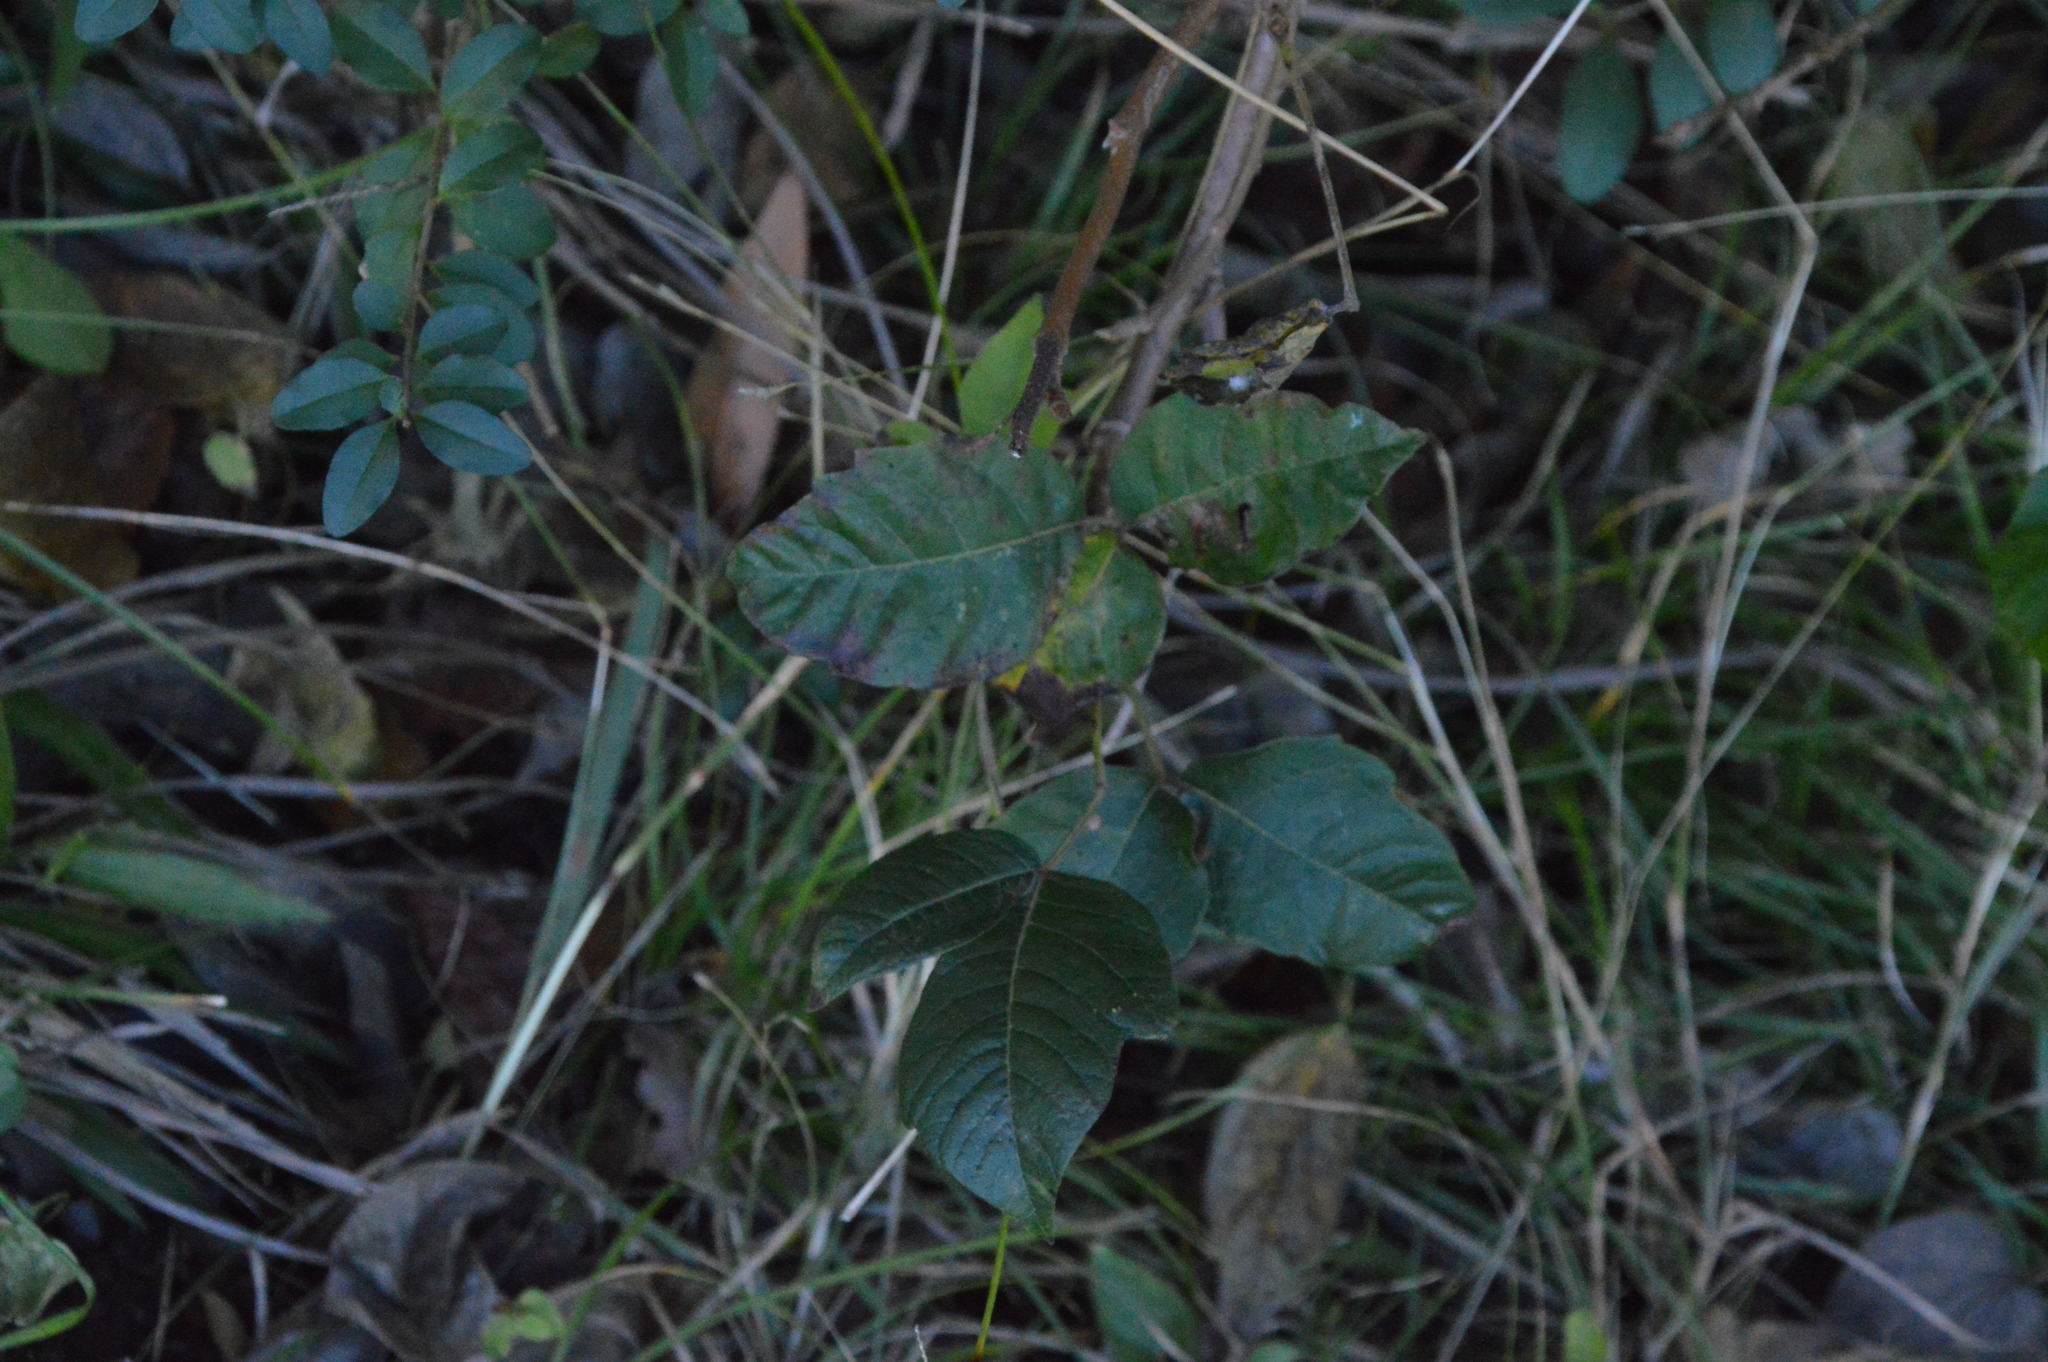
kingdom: Plantae
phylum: Tracheophyta
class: Magnoliopsida
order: Sapindales
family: Anacardiaceae
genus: Toxicodendron
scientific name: Toxicodendron radicans
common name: Poison ivy
